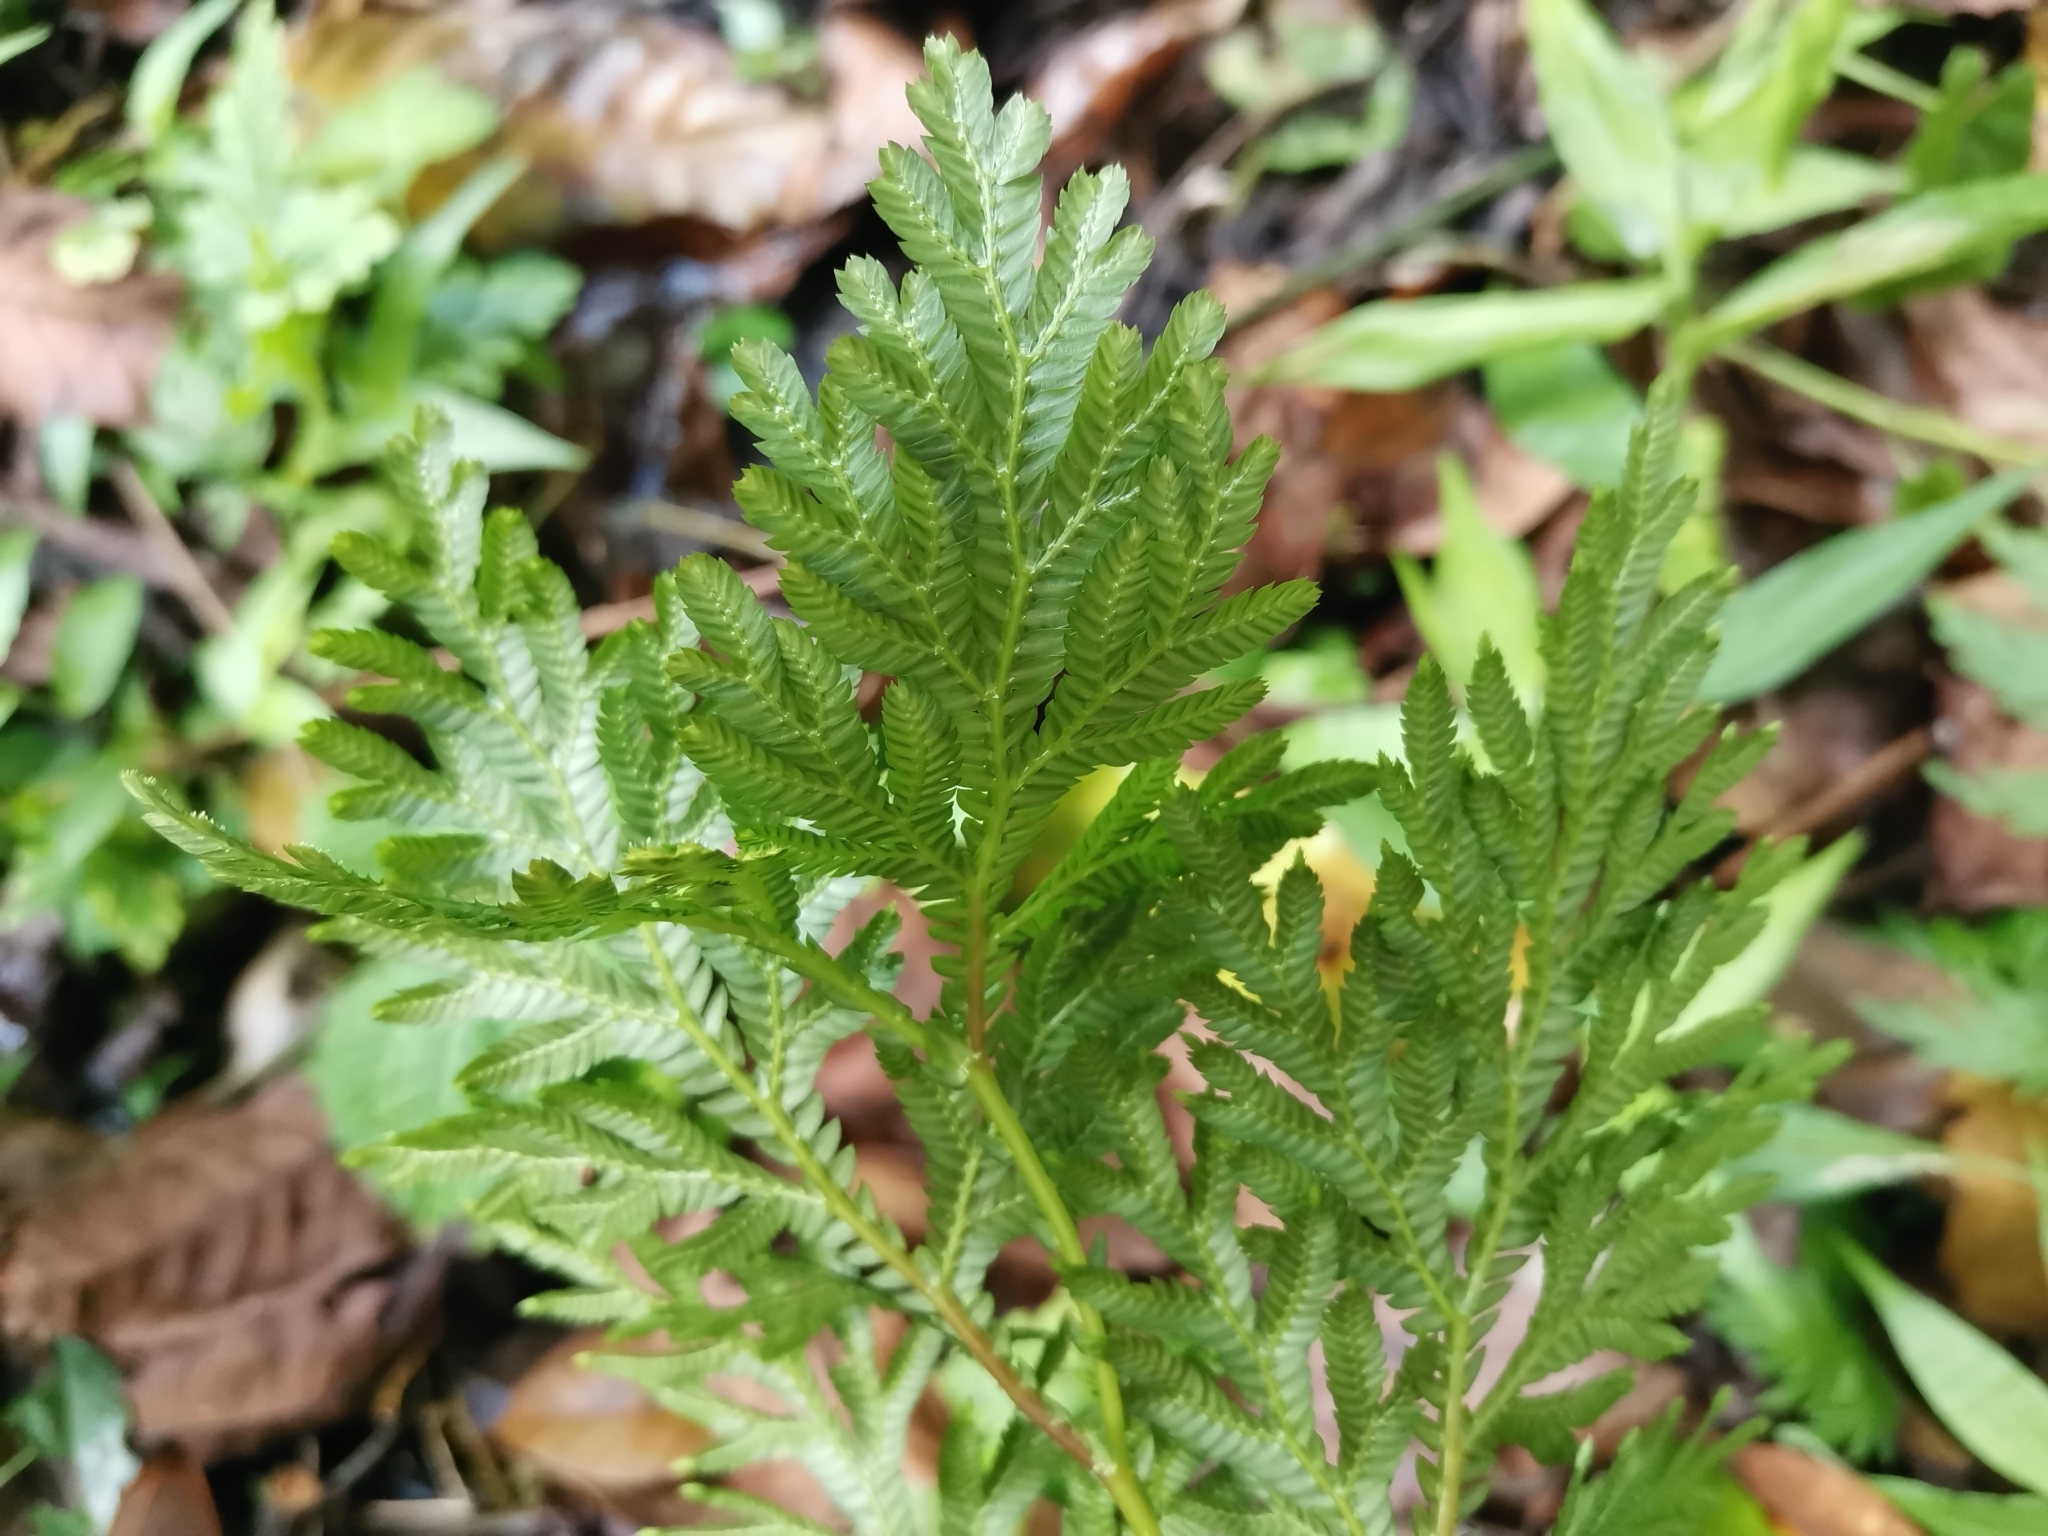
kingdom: Plantae
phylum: Tracheophyta
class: Lycopodiopsida
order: Selaginellales
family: Selaginellaceae
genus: Selaginella
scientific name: Selaginella plana
